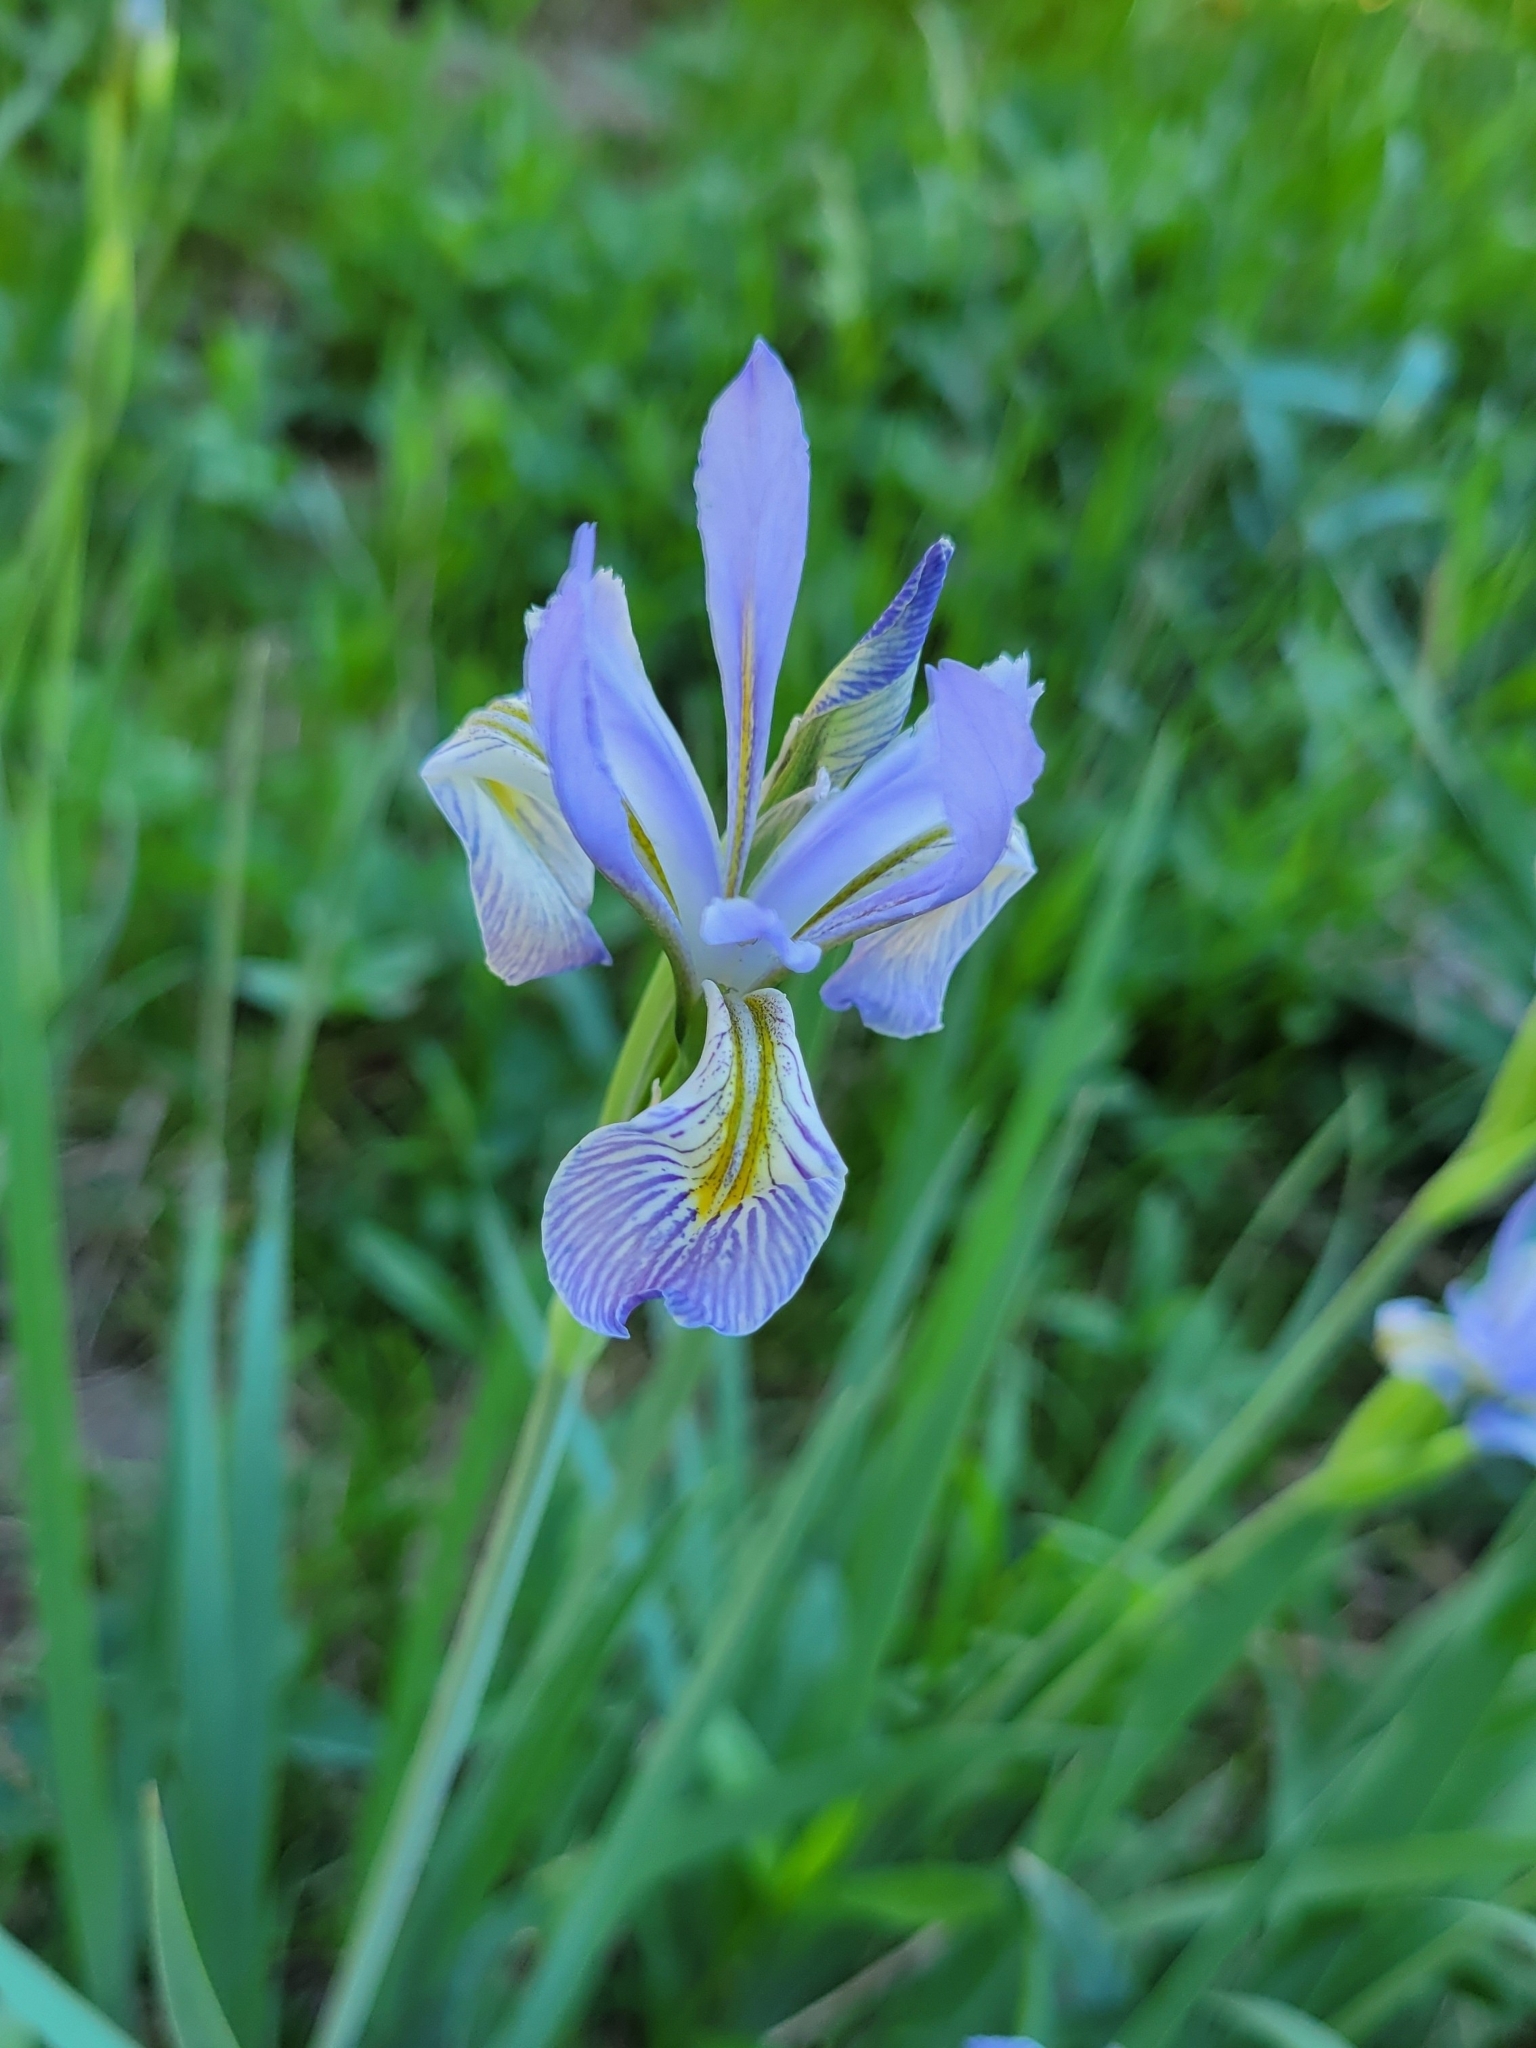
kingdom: Plantae
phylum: Tracheophyta
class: Liliopsida
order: Asparagales
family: Iridaceae
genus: Iris
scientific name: Iris missouriensis
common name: Rocky mountain iris
